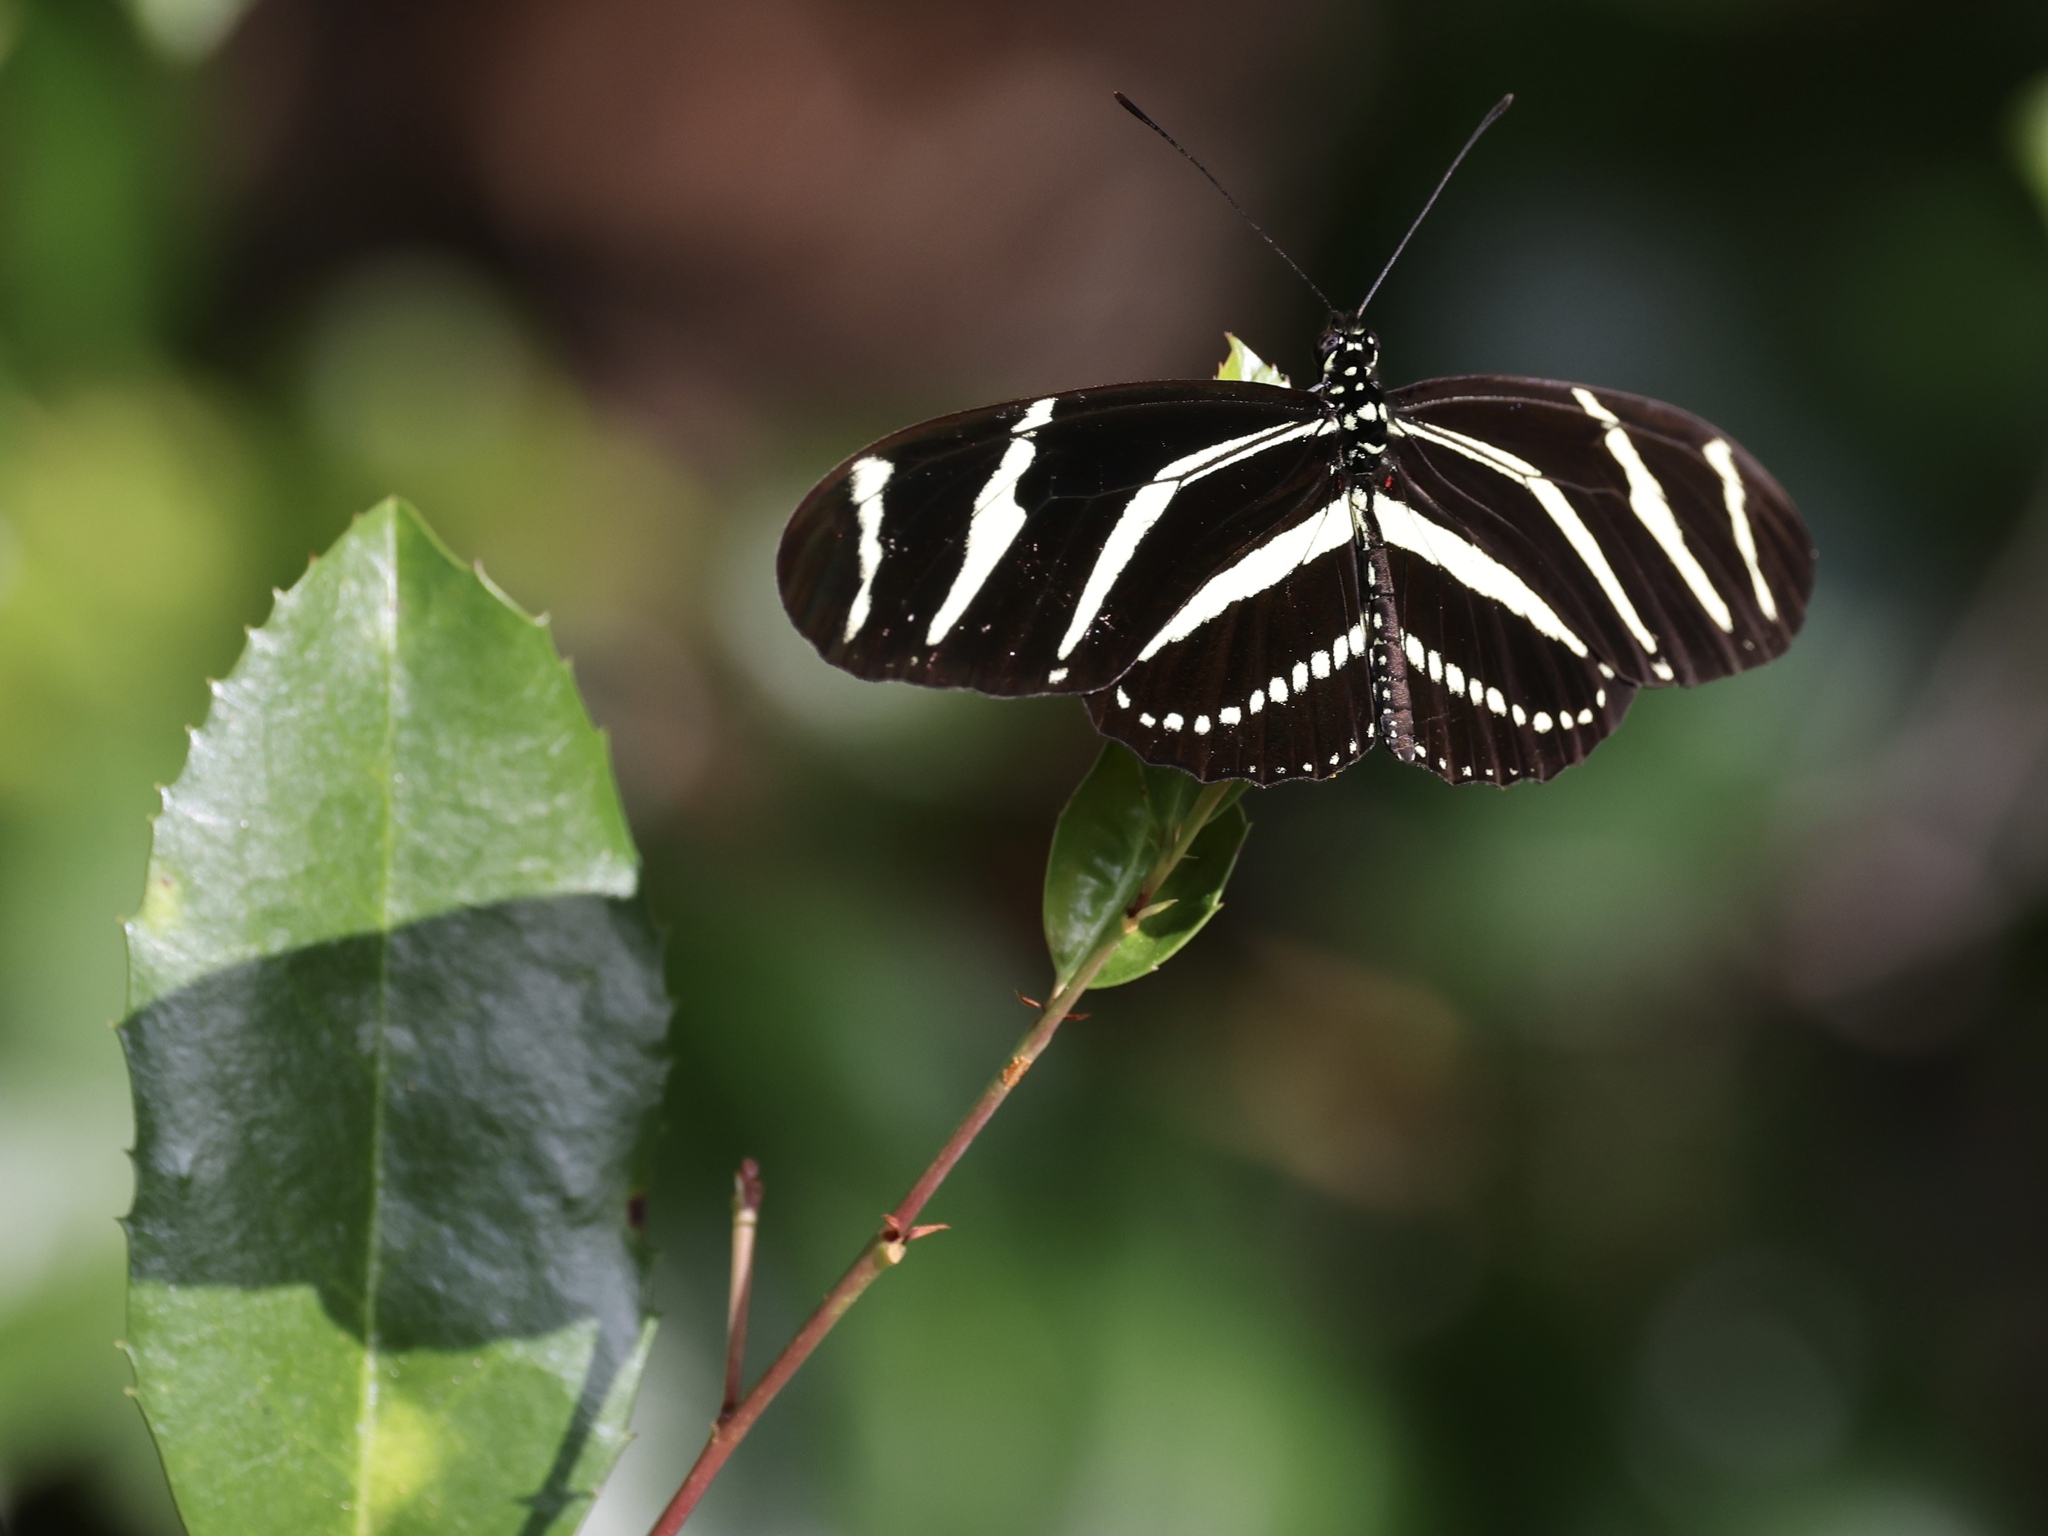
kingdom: Animalia
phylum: Arthropoda
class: Insecta
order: Lepidoptera
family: Nymphalidae
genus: Heliconius
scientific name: Heliconius charithonia
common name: Zebra long wing
